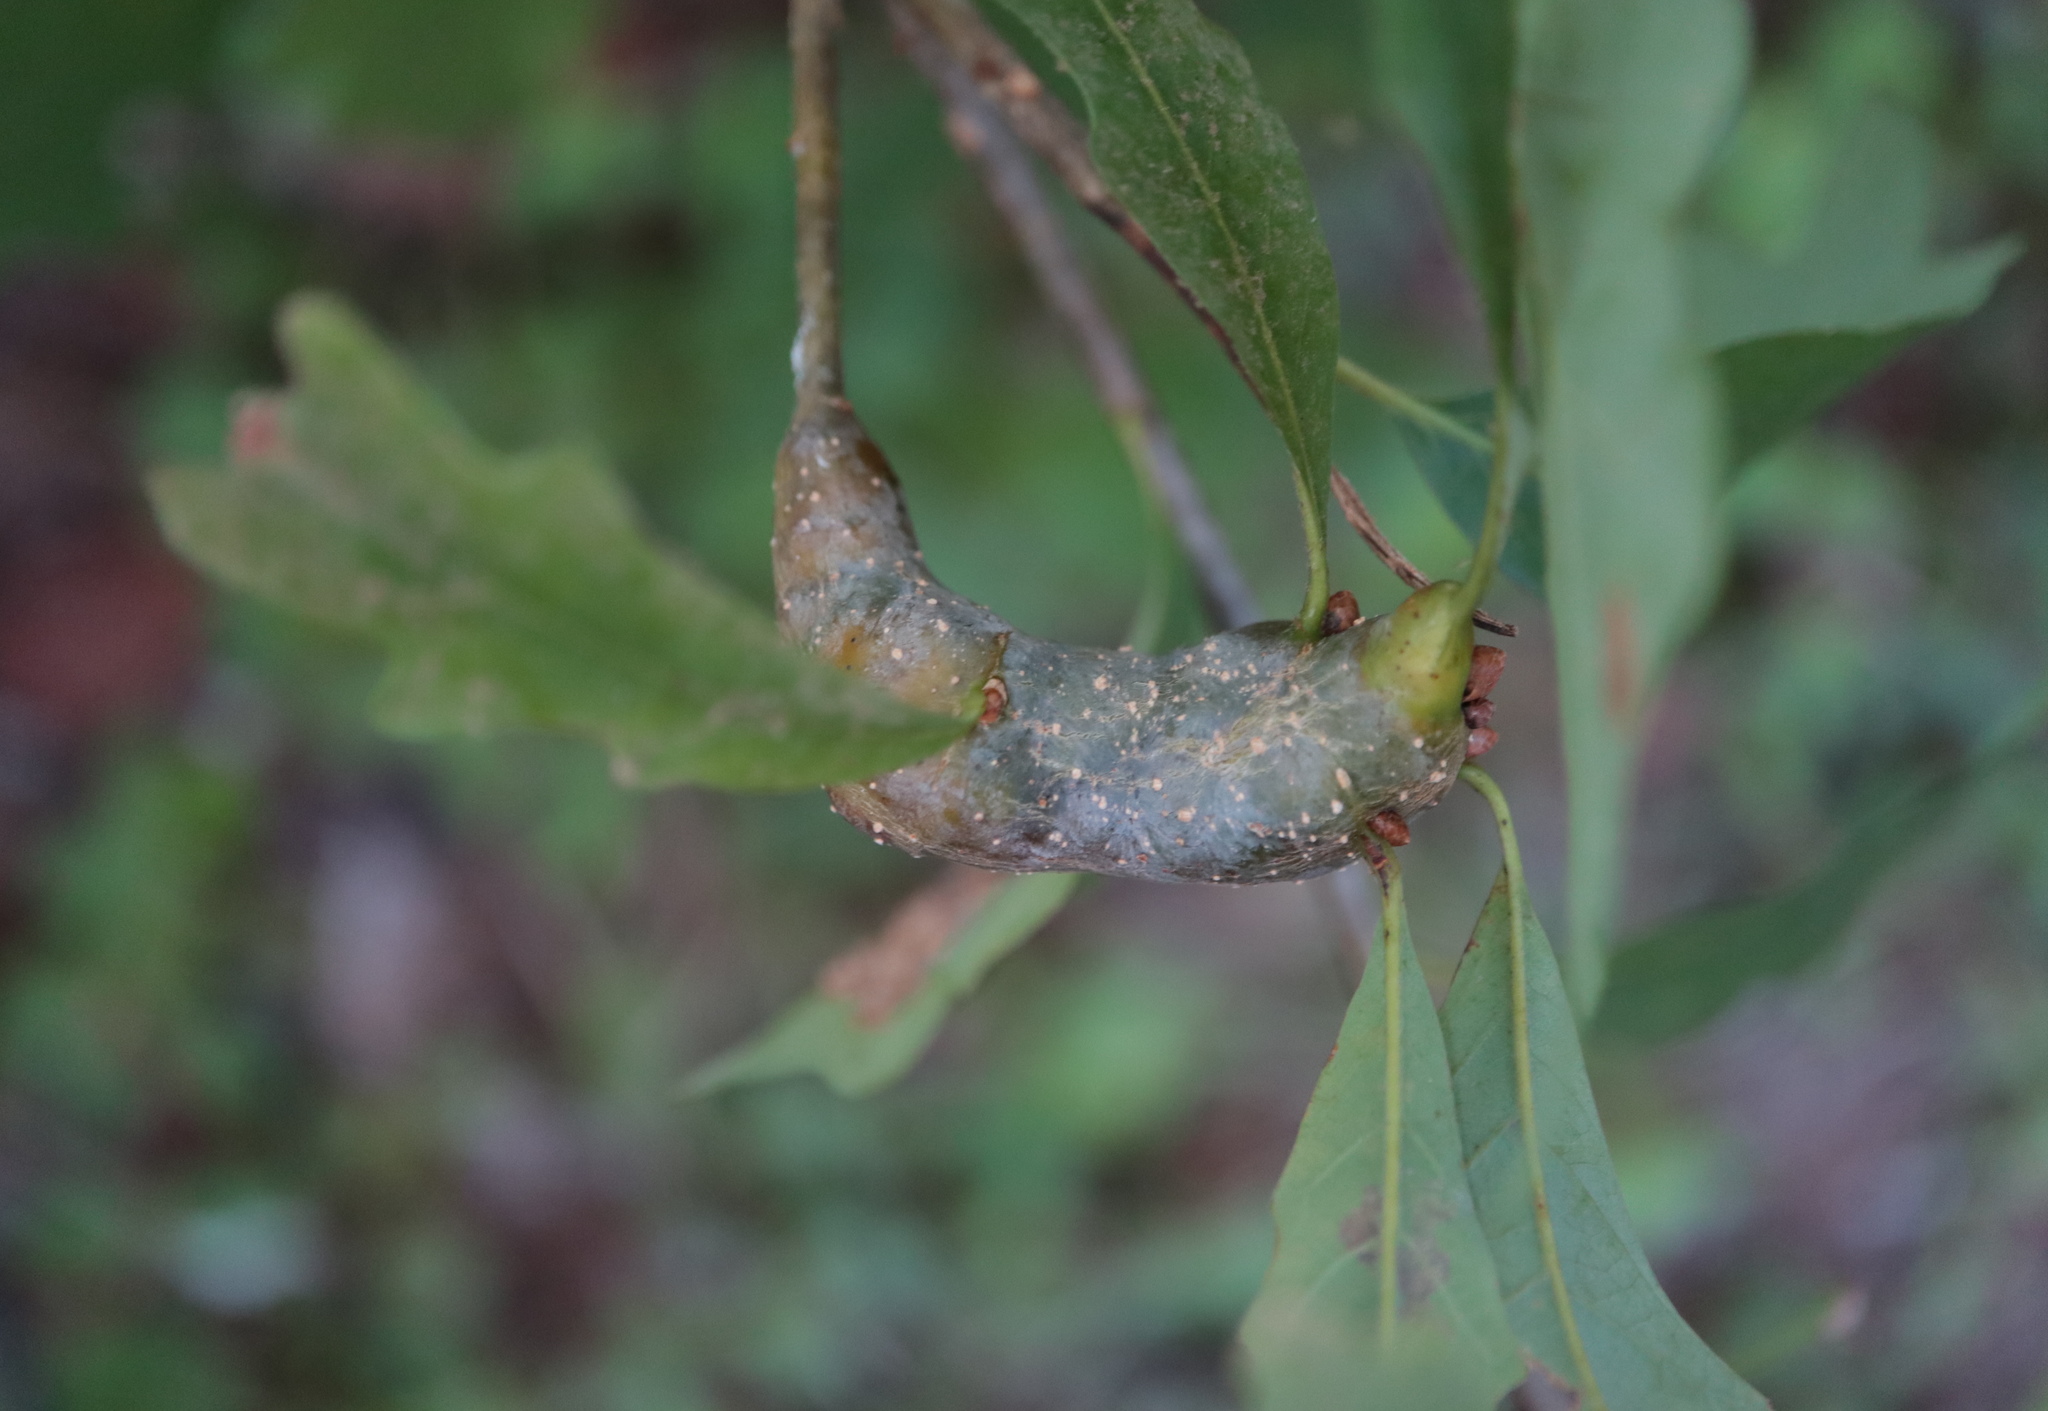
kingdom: Animalia
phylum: Arthropoda
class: Insecta
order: Hymenoptera
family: Cynipidae
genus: Neuroterus
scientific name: Neuroterus quercusbaccarum
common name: Common spangle gall
